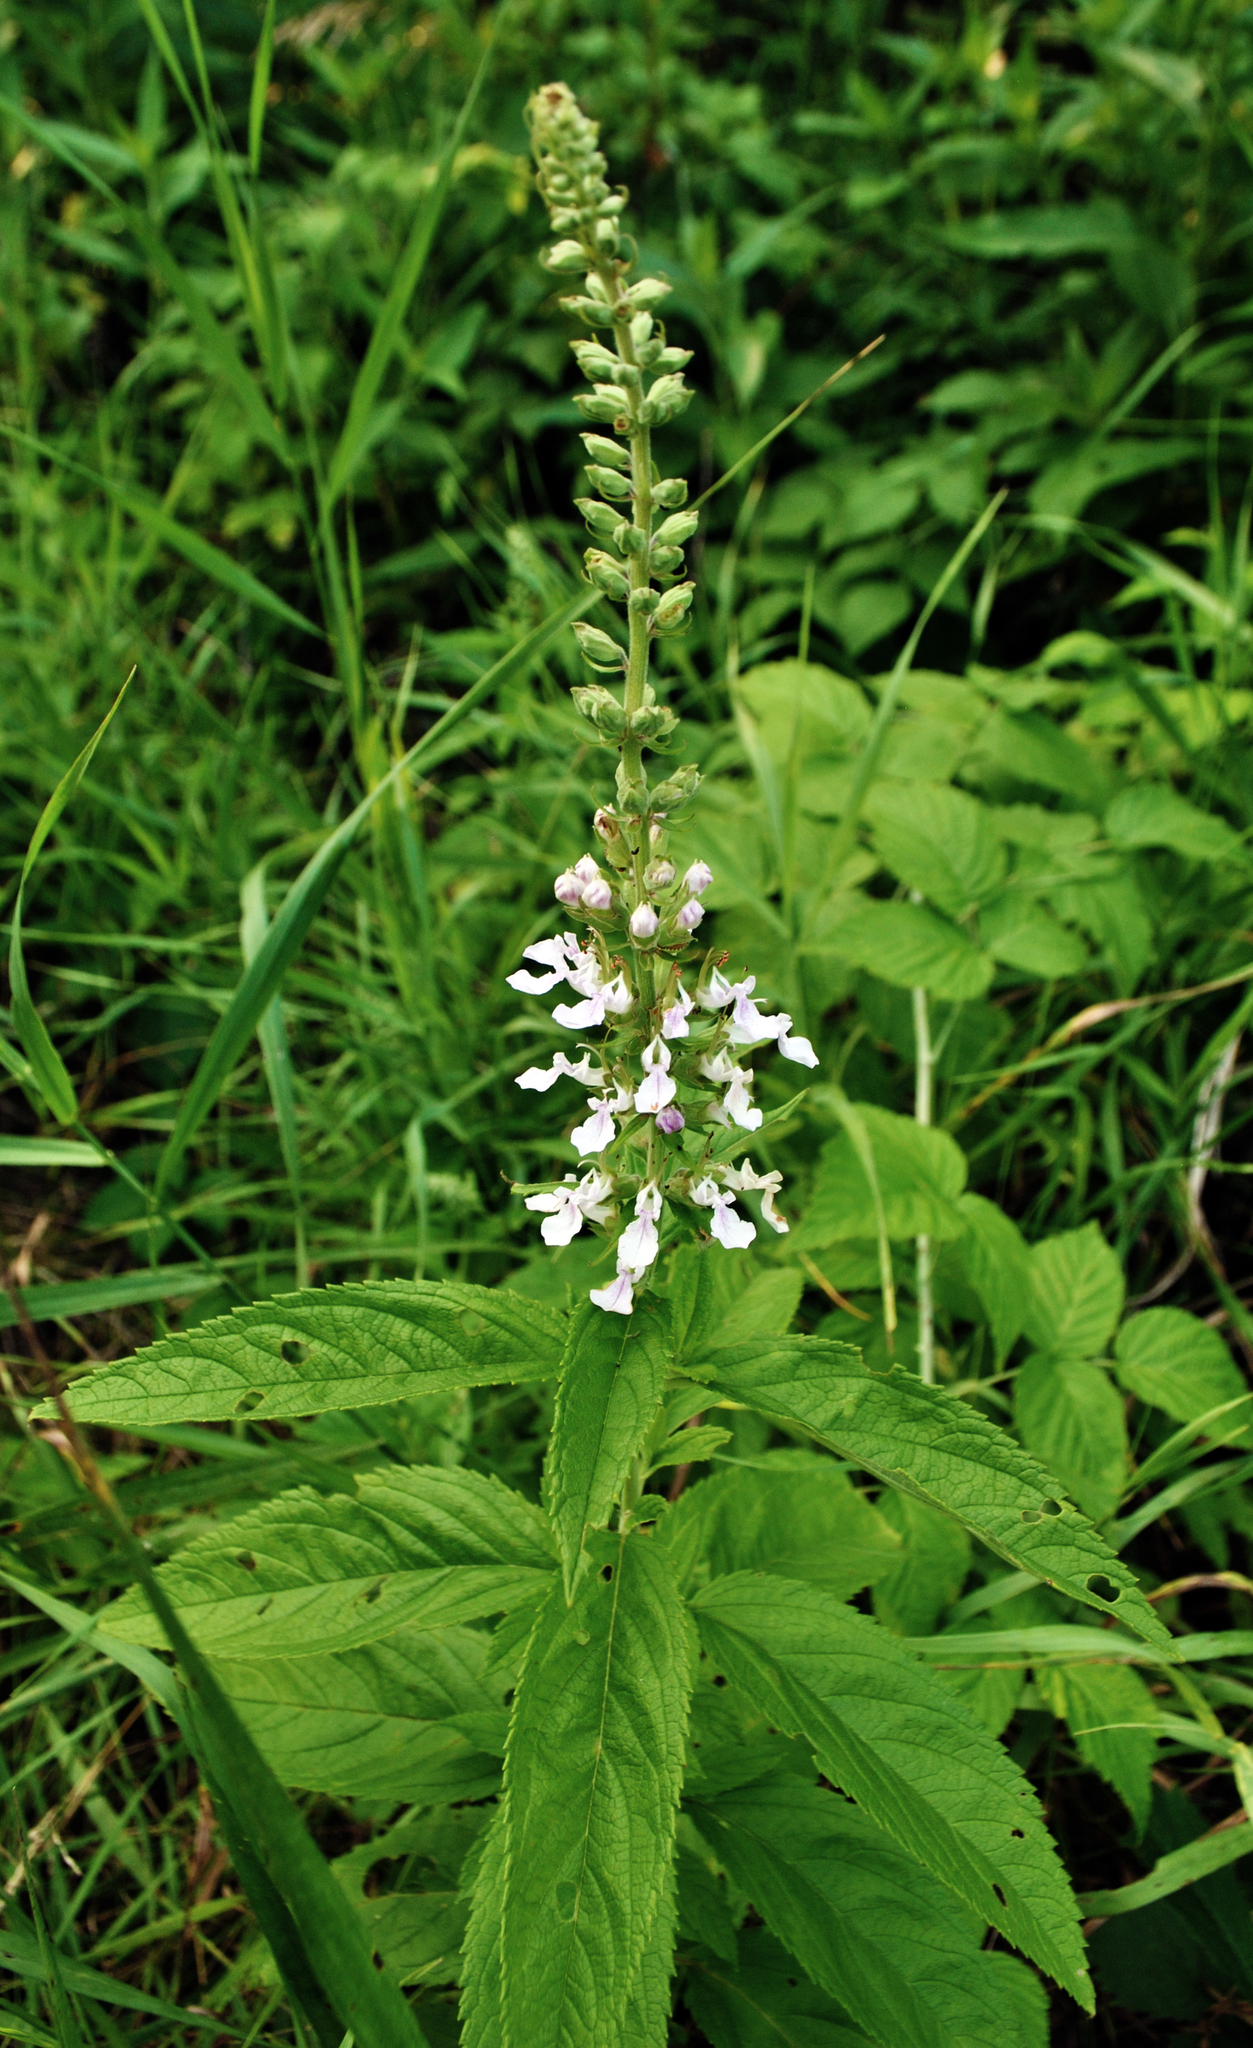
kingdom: Plantae
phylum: Tracheophyta
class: Magnoliopsida
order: Lamiales
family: Lamiaceae
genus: Teucrium
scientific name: Teucrium canadense
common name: American germander
